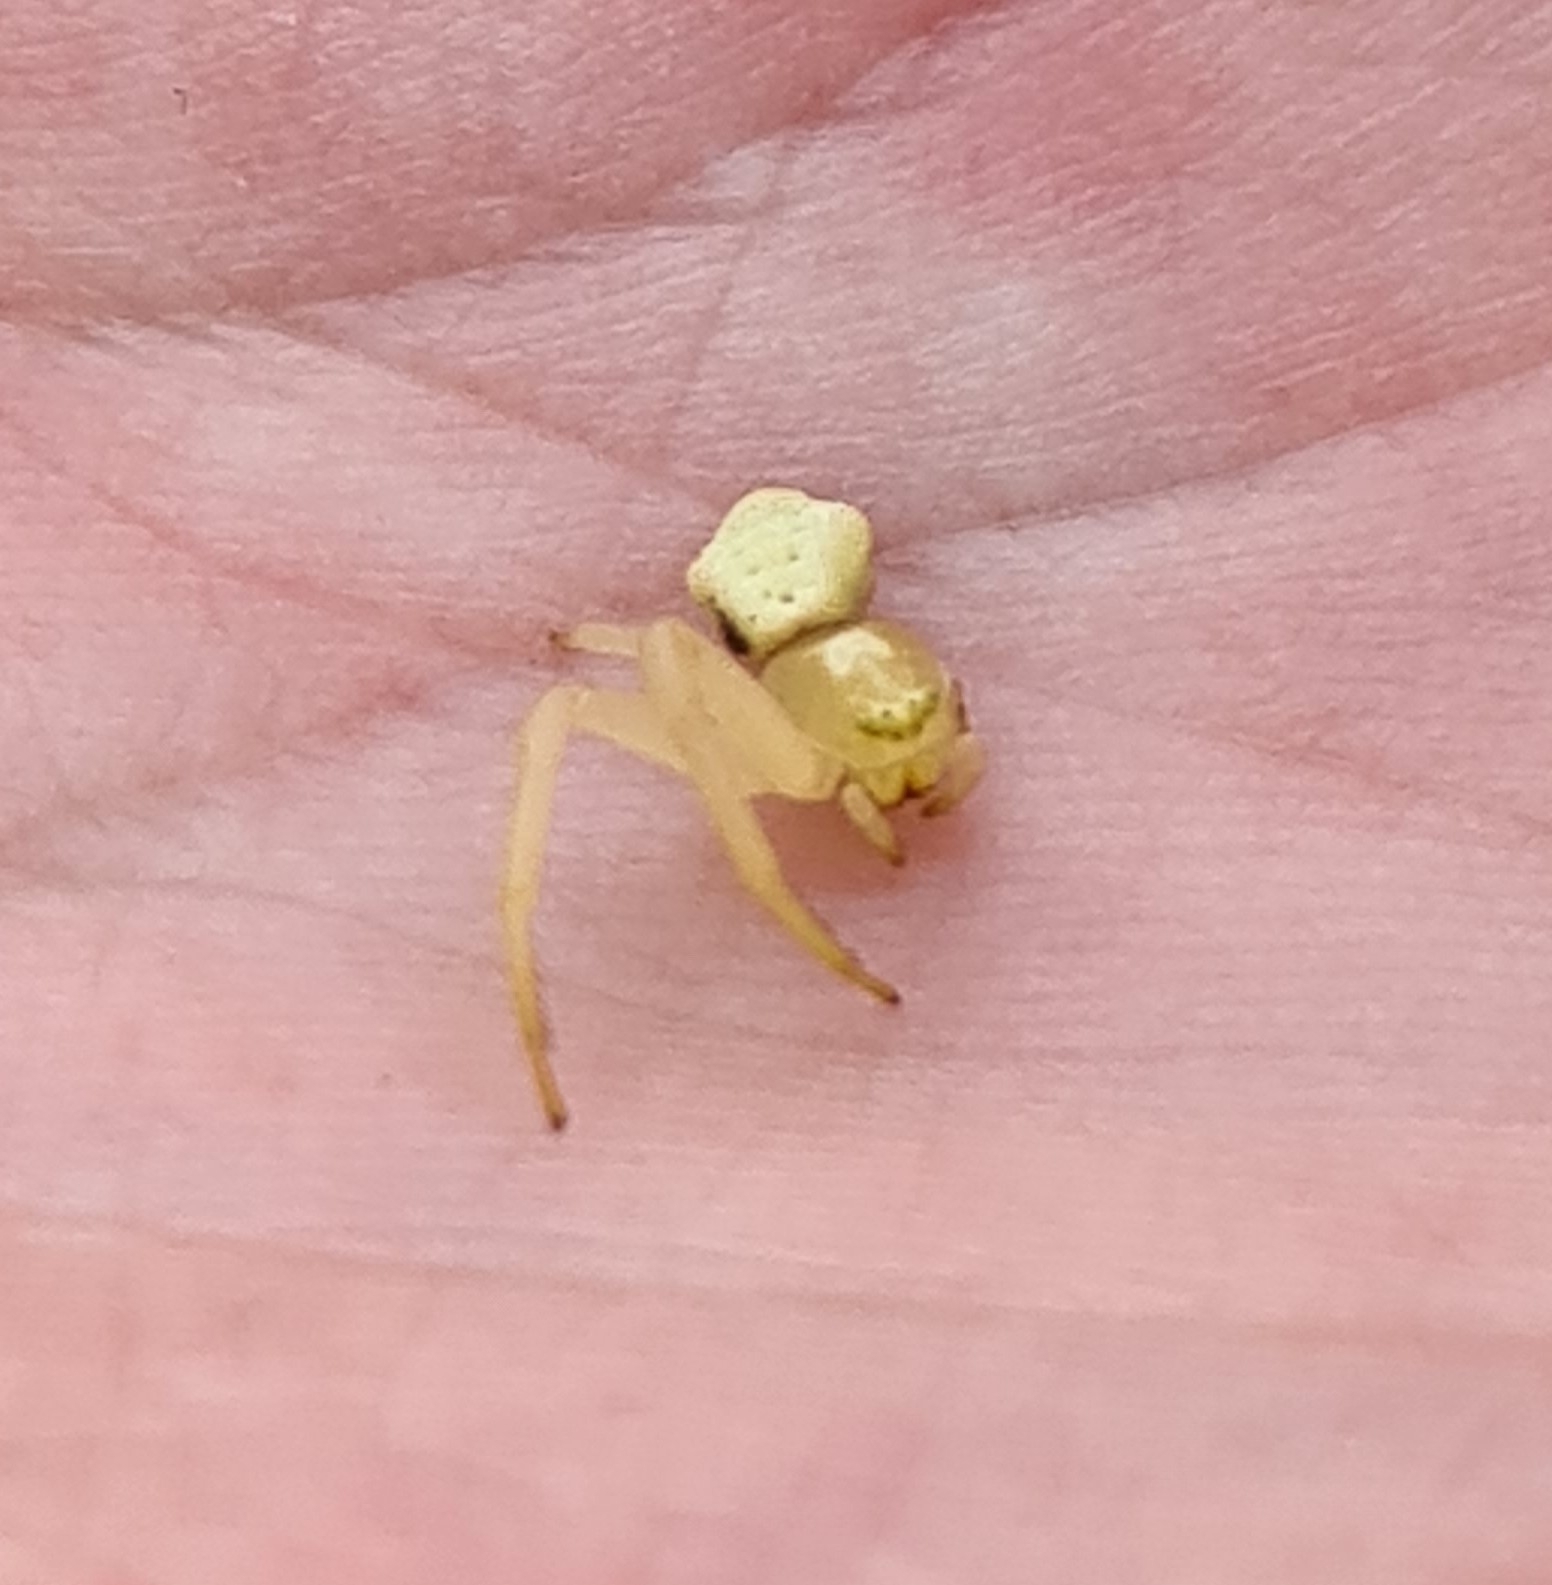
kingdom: Animalia
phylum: Arthropoda
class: Arachnida
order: Araneae
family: Thomisidae
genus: Misumena
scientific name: Misumena vatia
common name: Goldenrod crab spider
